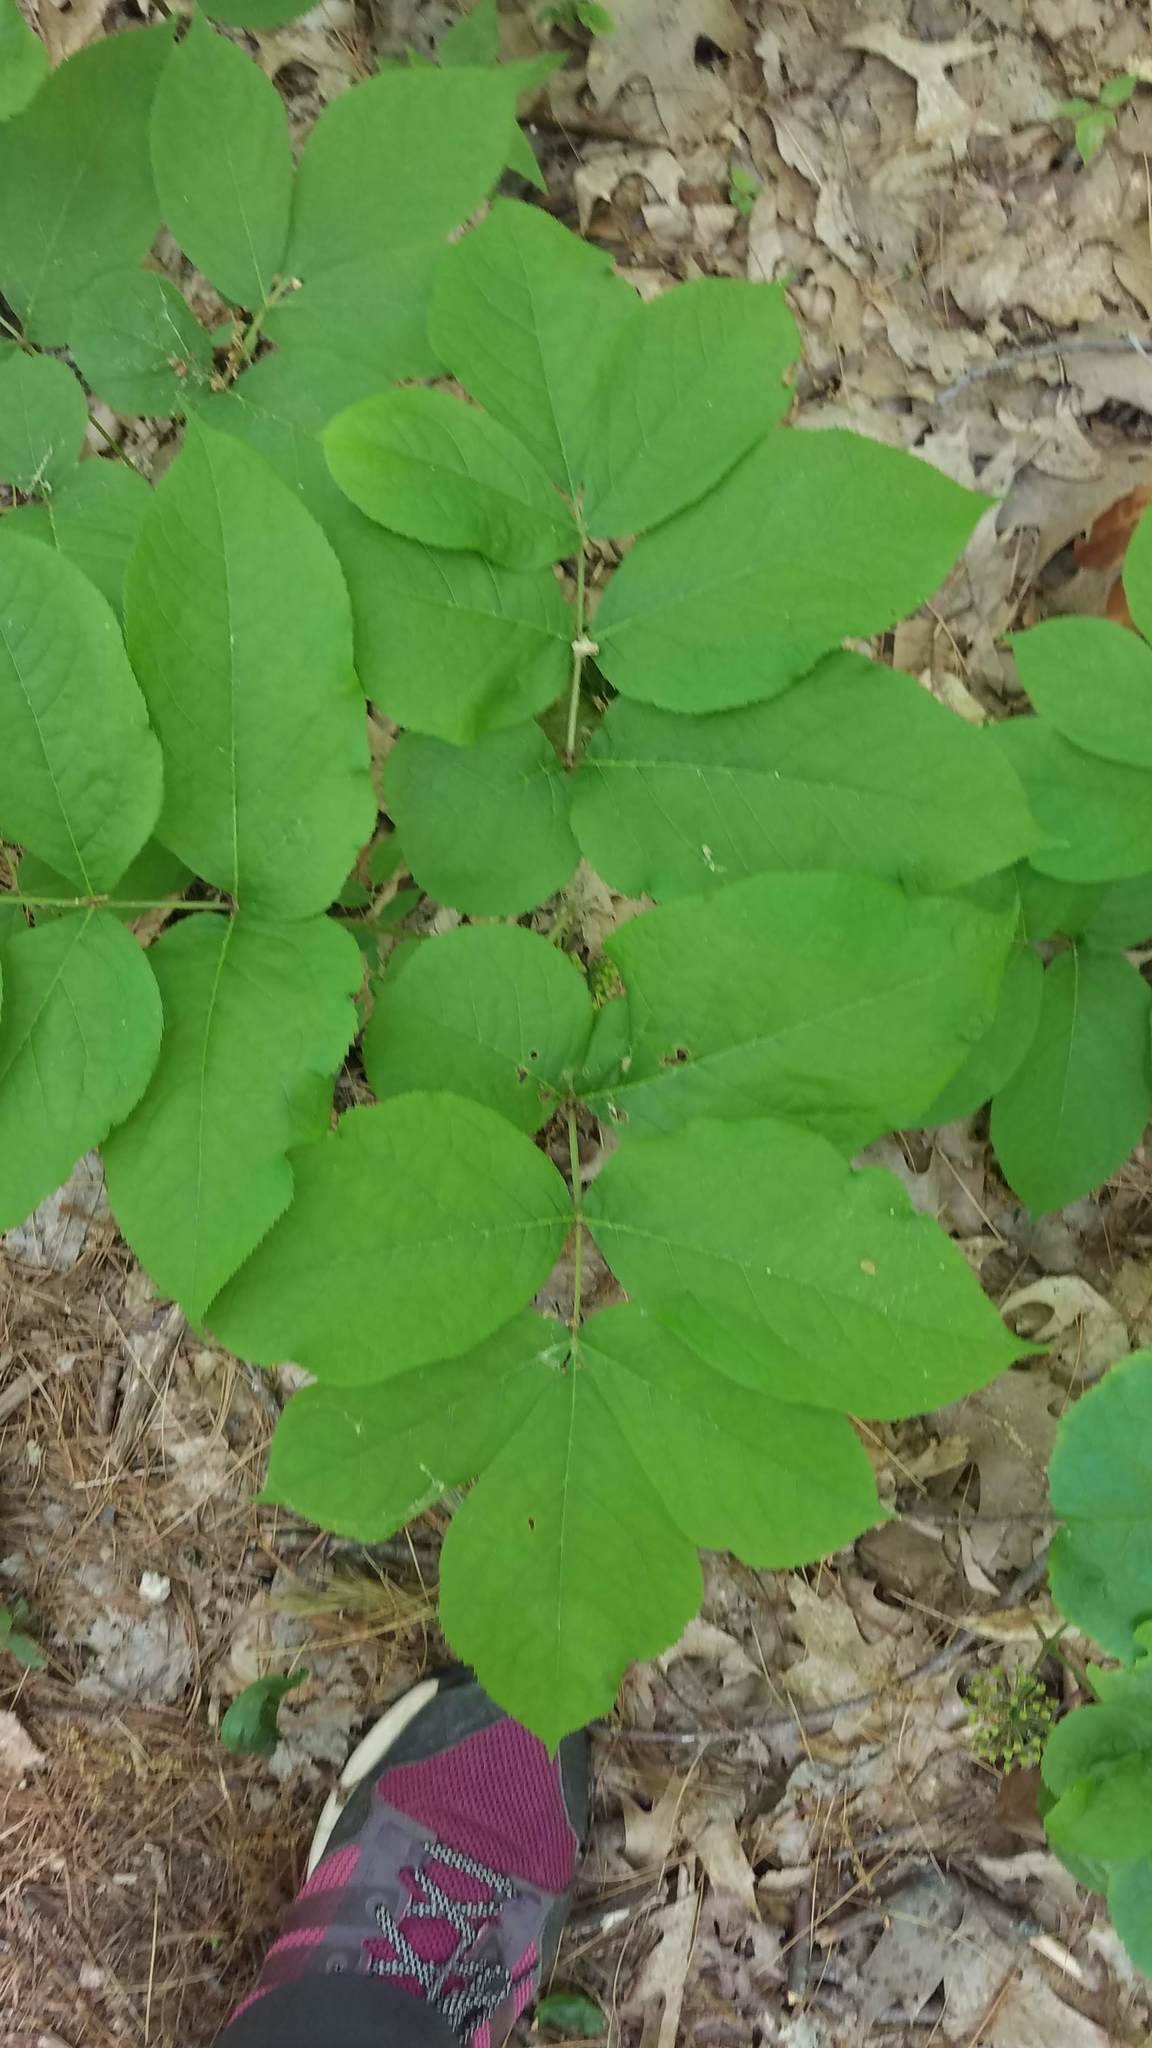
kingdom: Plantae
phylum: Tracheophyta
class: Magnoliopsida
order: Apiales
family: Araliaceae
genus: Aralia
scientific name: Aralia nudicaulis
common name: Wild sarsaparilla
